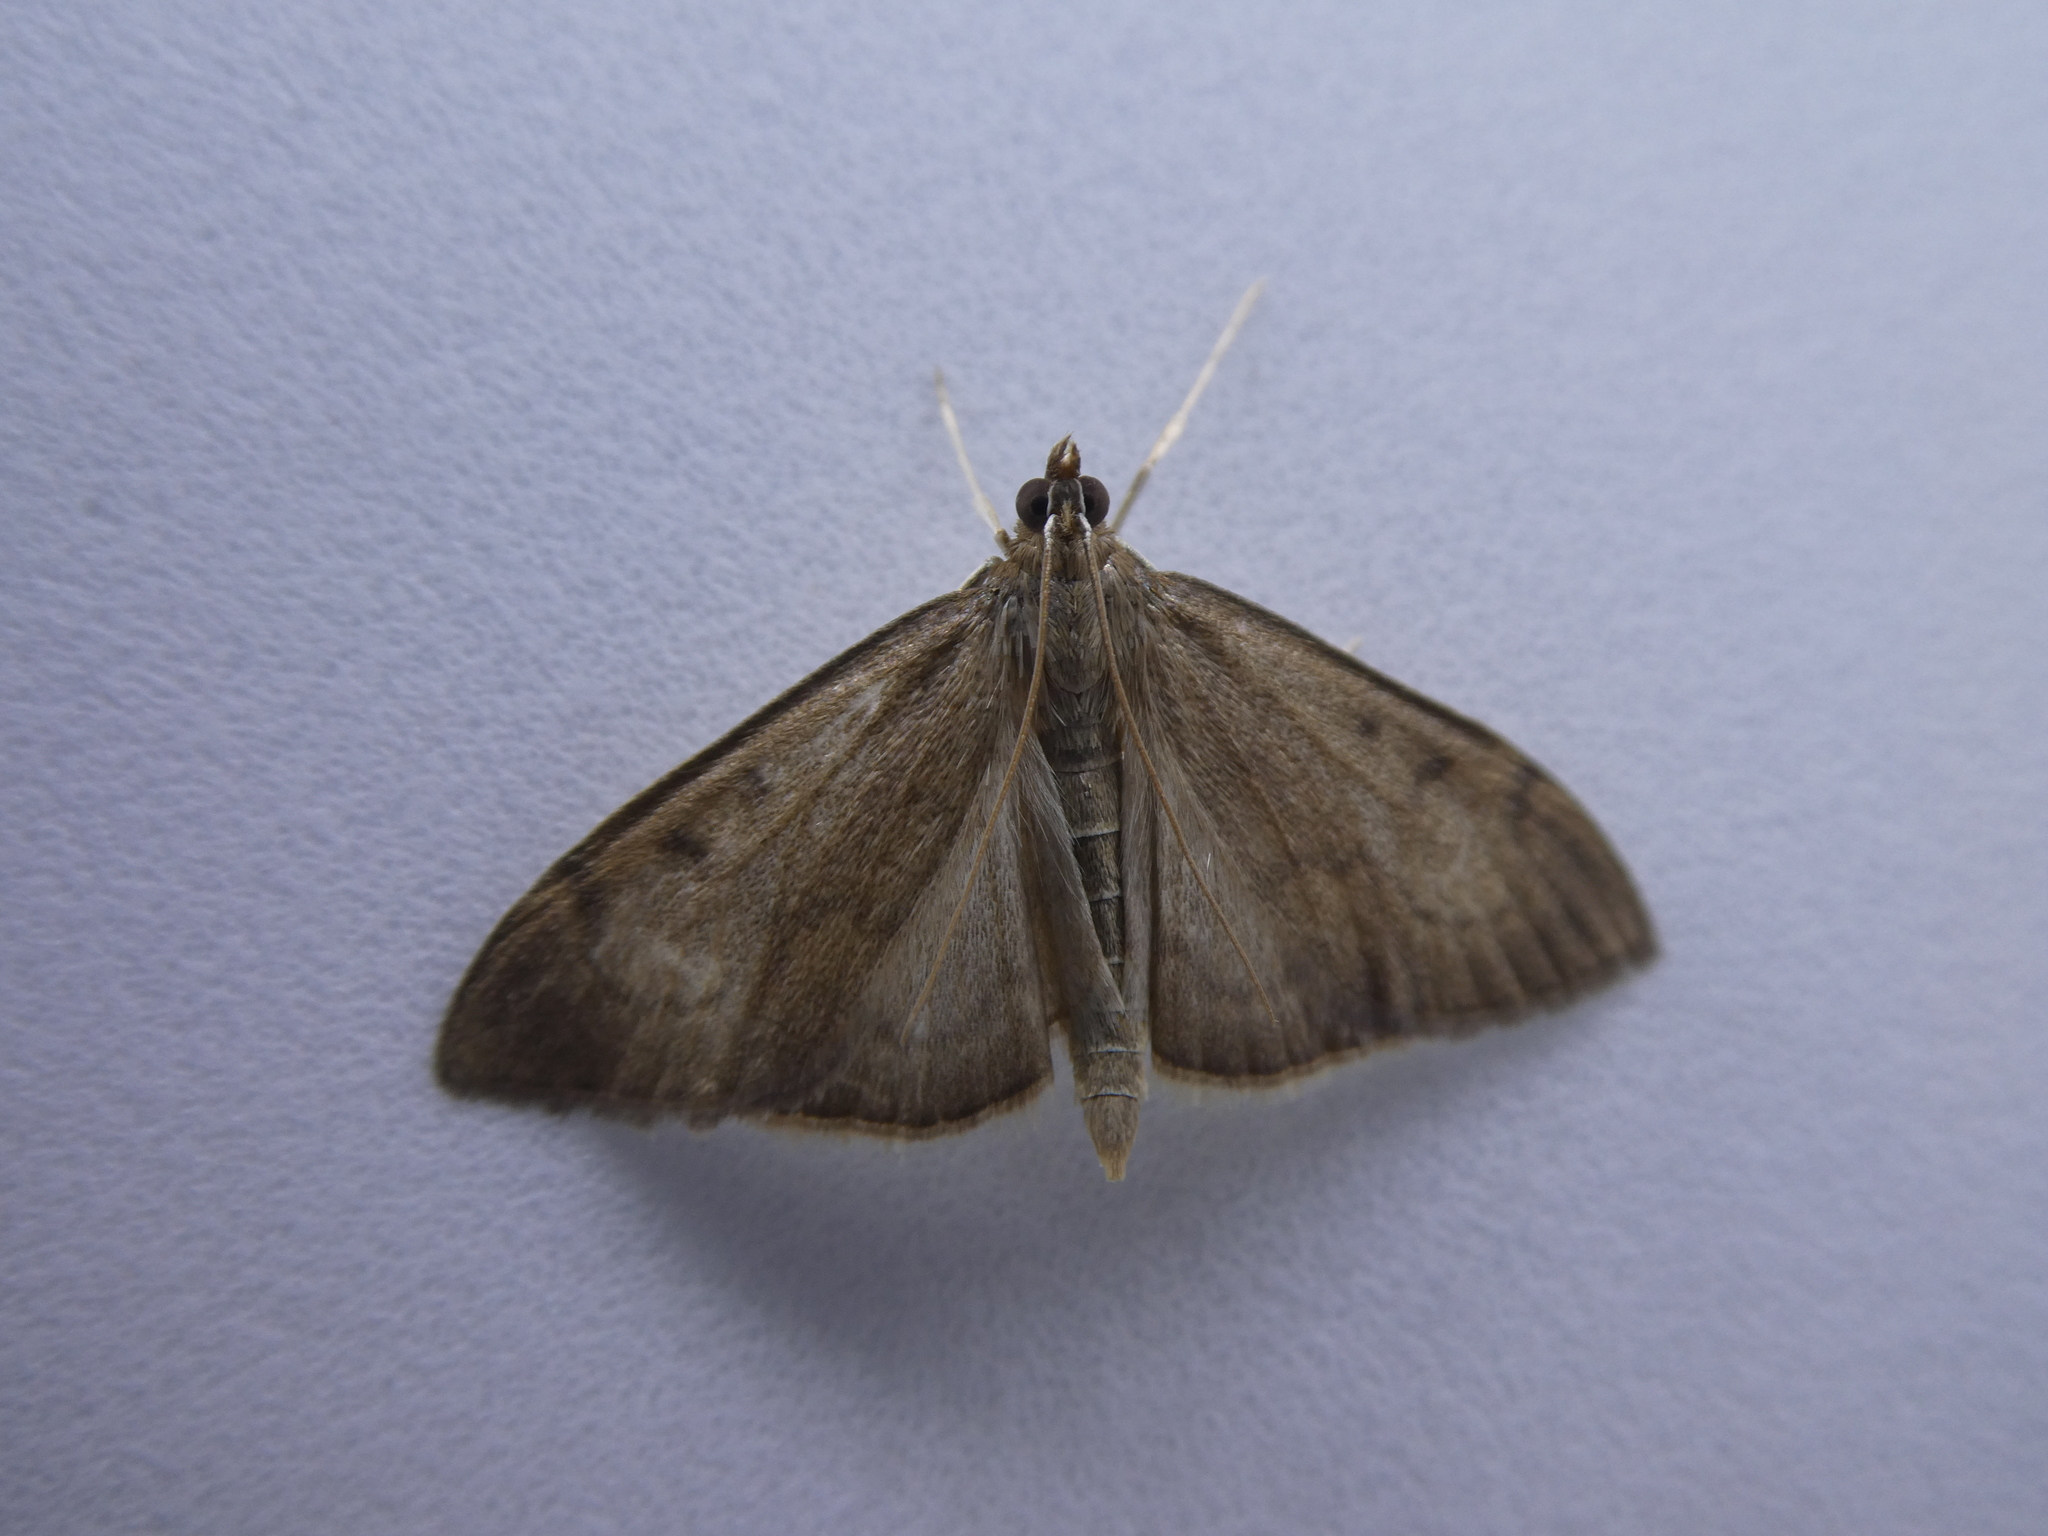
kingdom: Animalia
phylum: Arthropoda
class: Insecta
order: Lepidoptera
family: Crambidae
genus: Anania
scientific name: Anania mysippusalis
